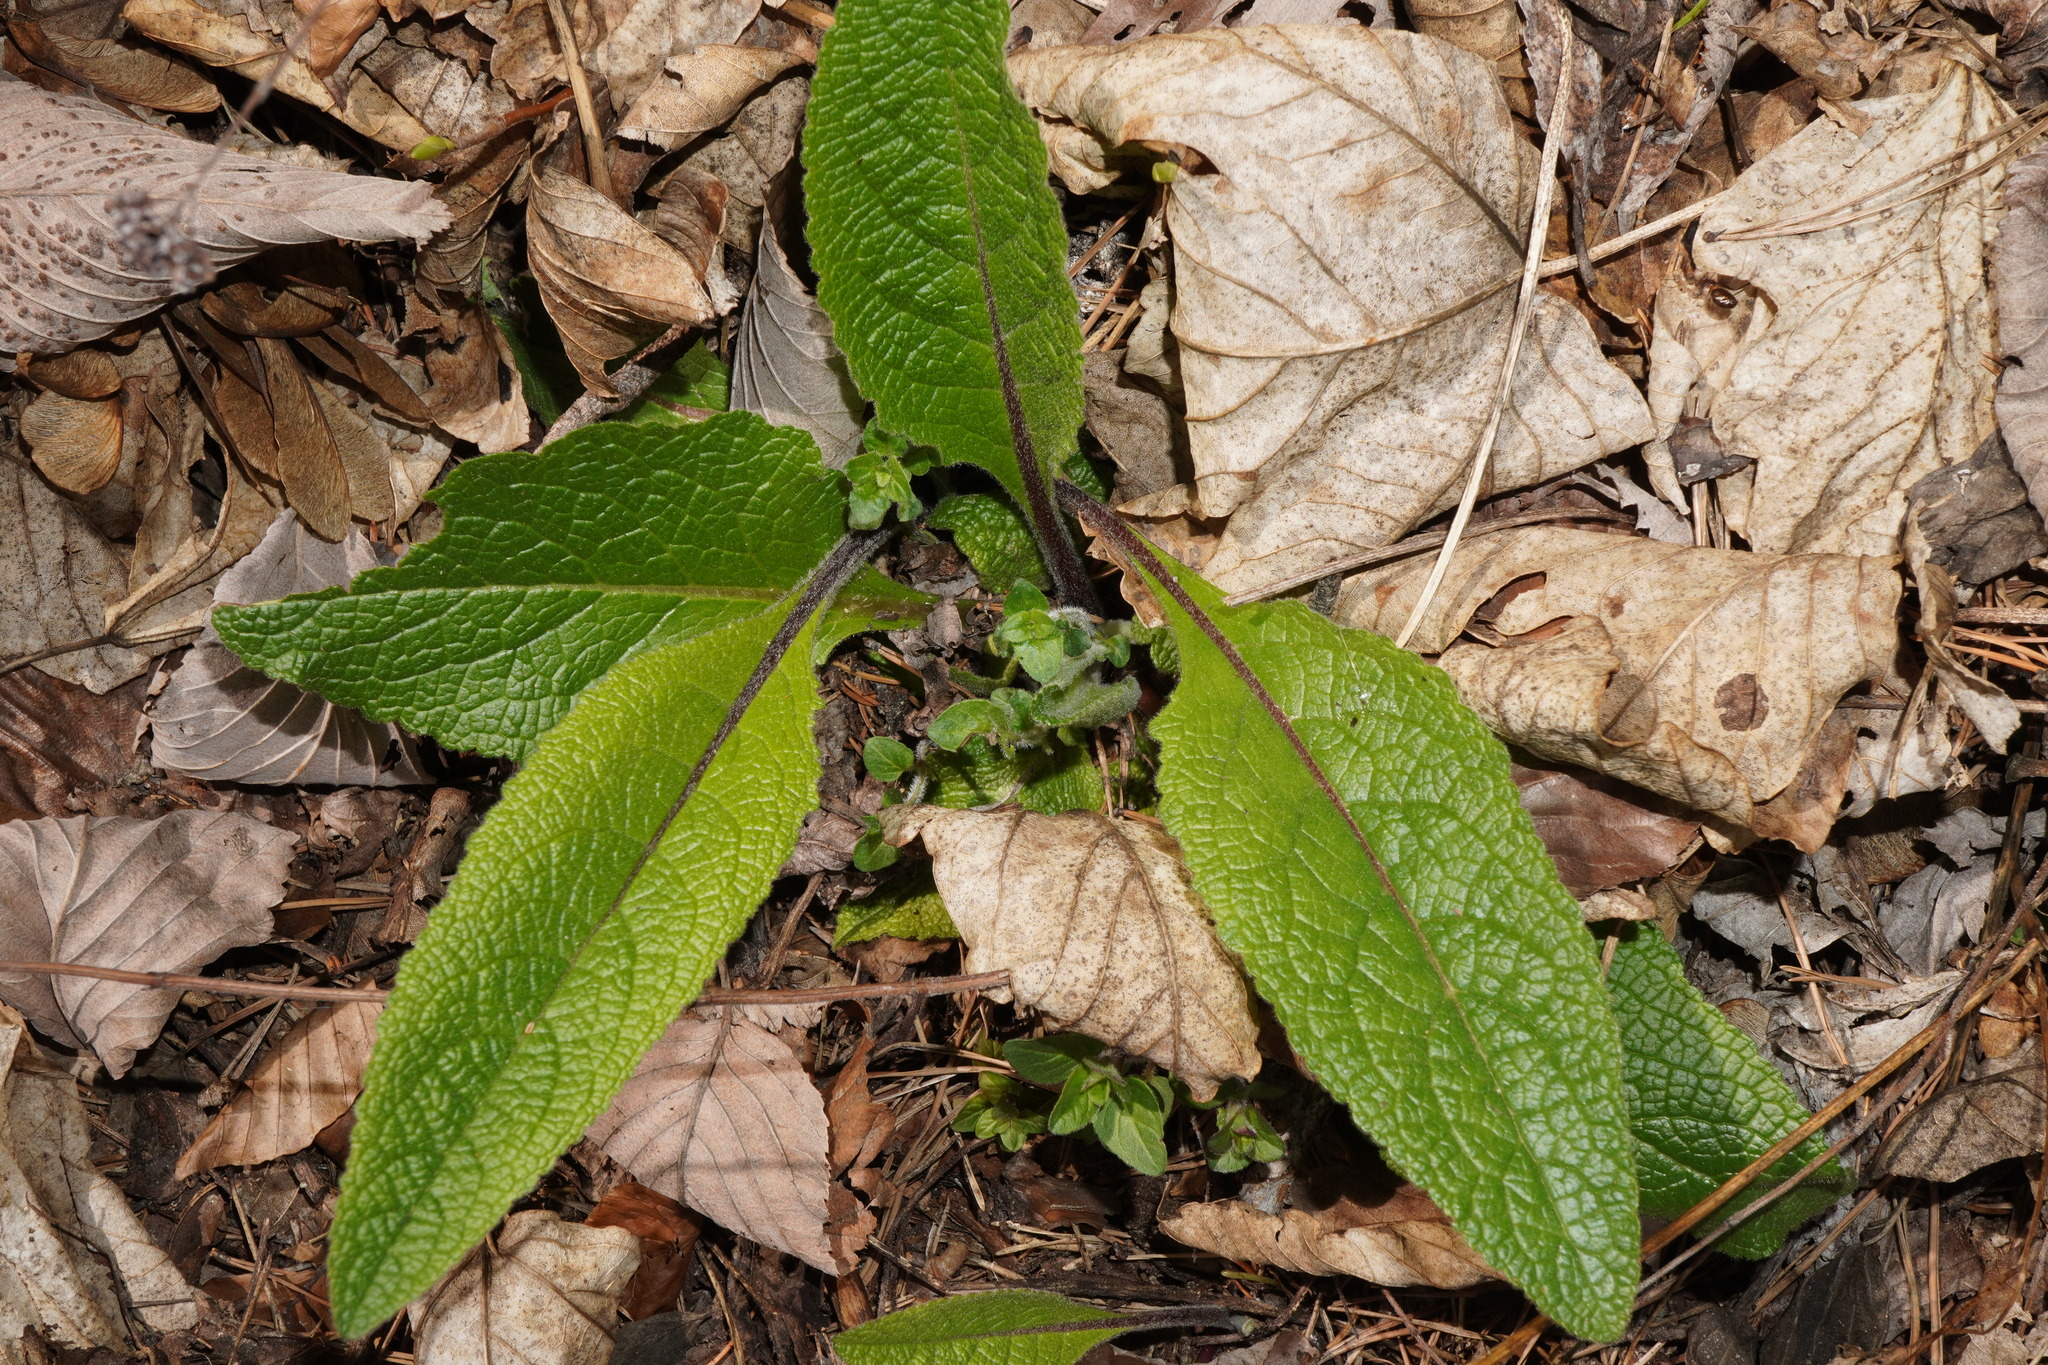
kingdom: Plantae
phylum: Tracheophyta
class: Magnoliopsida
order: Lamiales
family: Scrophulariaceae
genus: Verbascum
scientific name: Verbascum chaixii
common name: Nettle-leaved mullein
